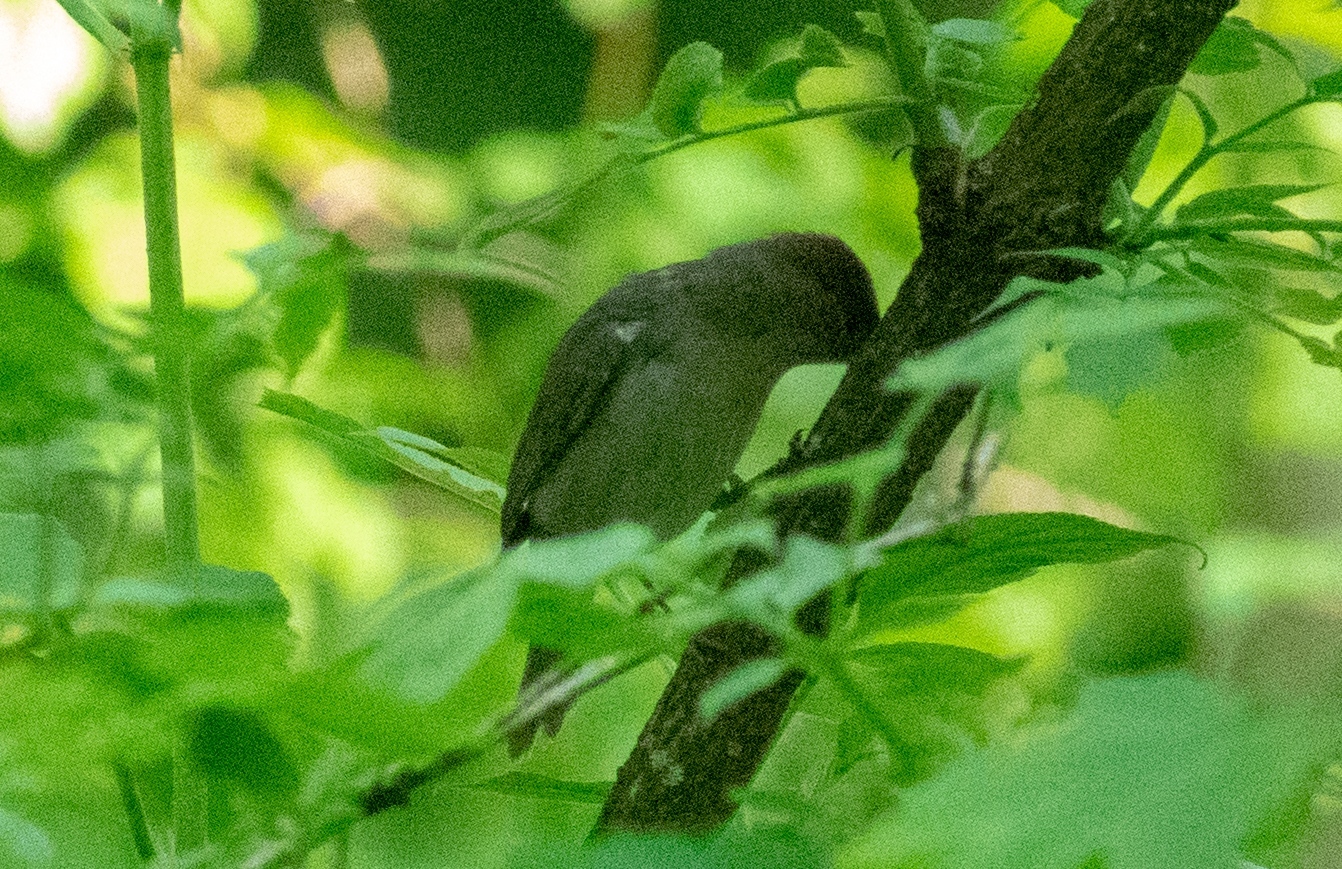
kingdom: Animalia
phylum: Chordata
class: Aves
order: Passeriformes
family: Sylviidae
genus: Sylvia
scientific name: Sylvia atricapilla
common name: Eurasian blackcap
